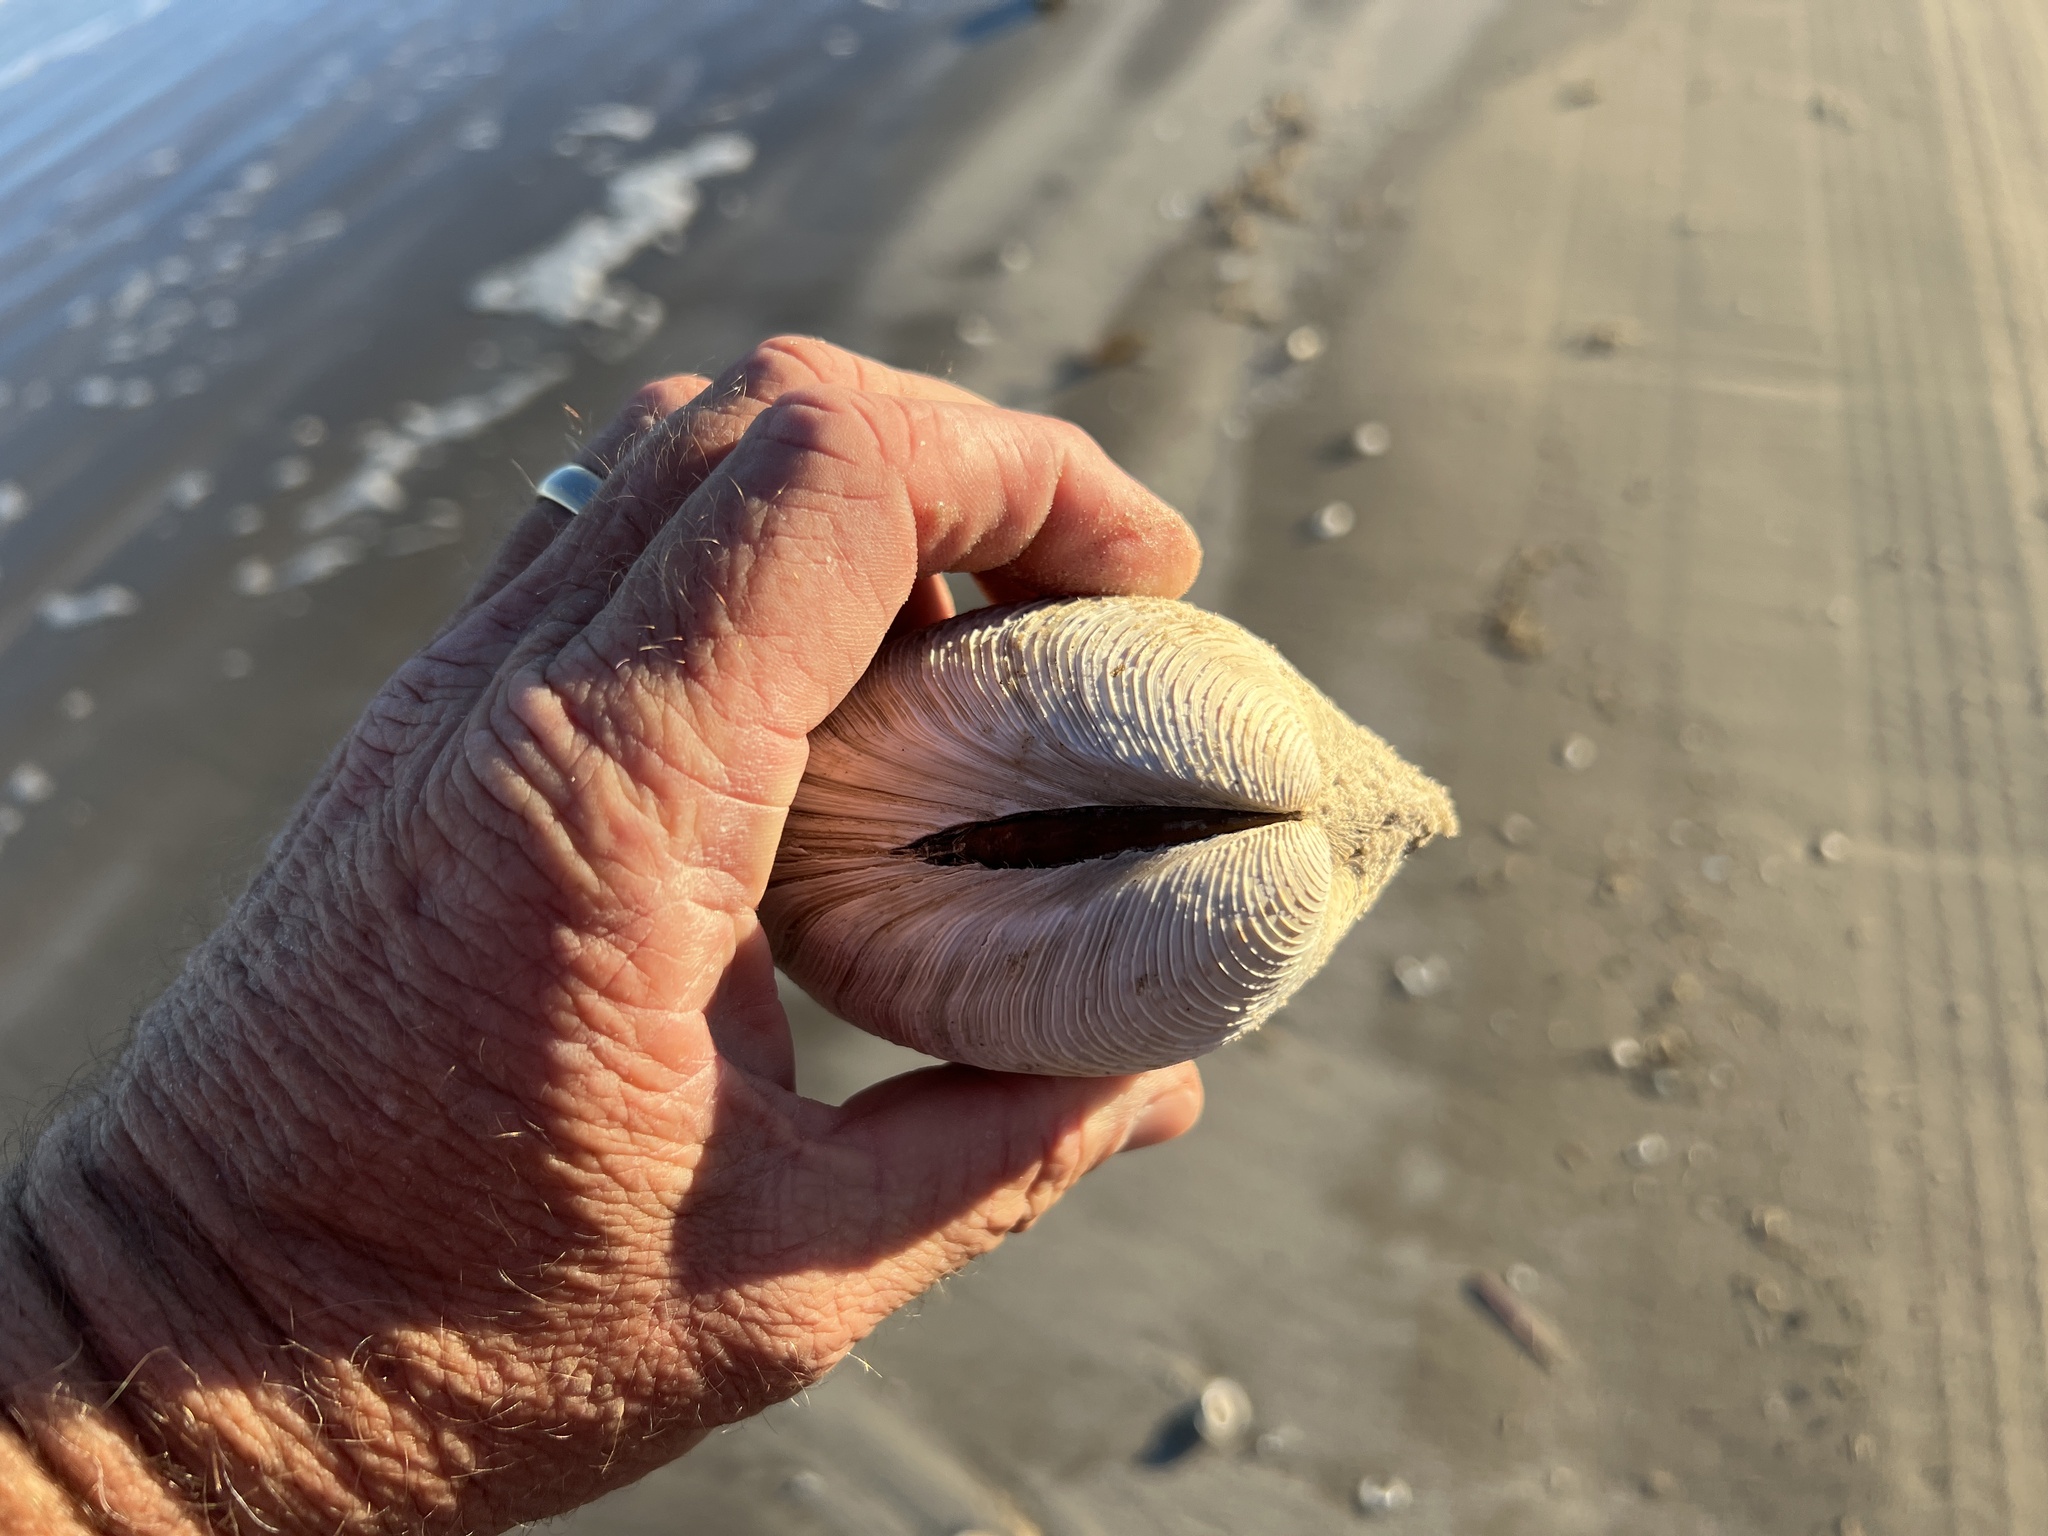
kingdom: Animalia
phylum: Mollusca
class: Bivalvia
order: Venerida
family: Veneridae
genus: Mercenaria
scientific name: Mercenaria campechiensis
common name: Südliche quahog-muschel
